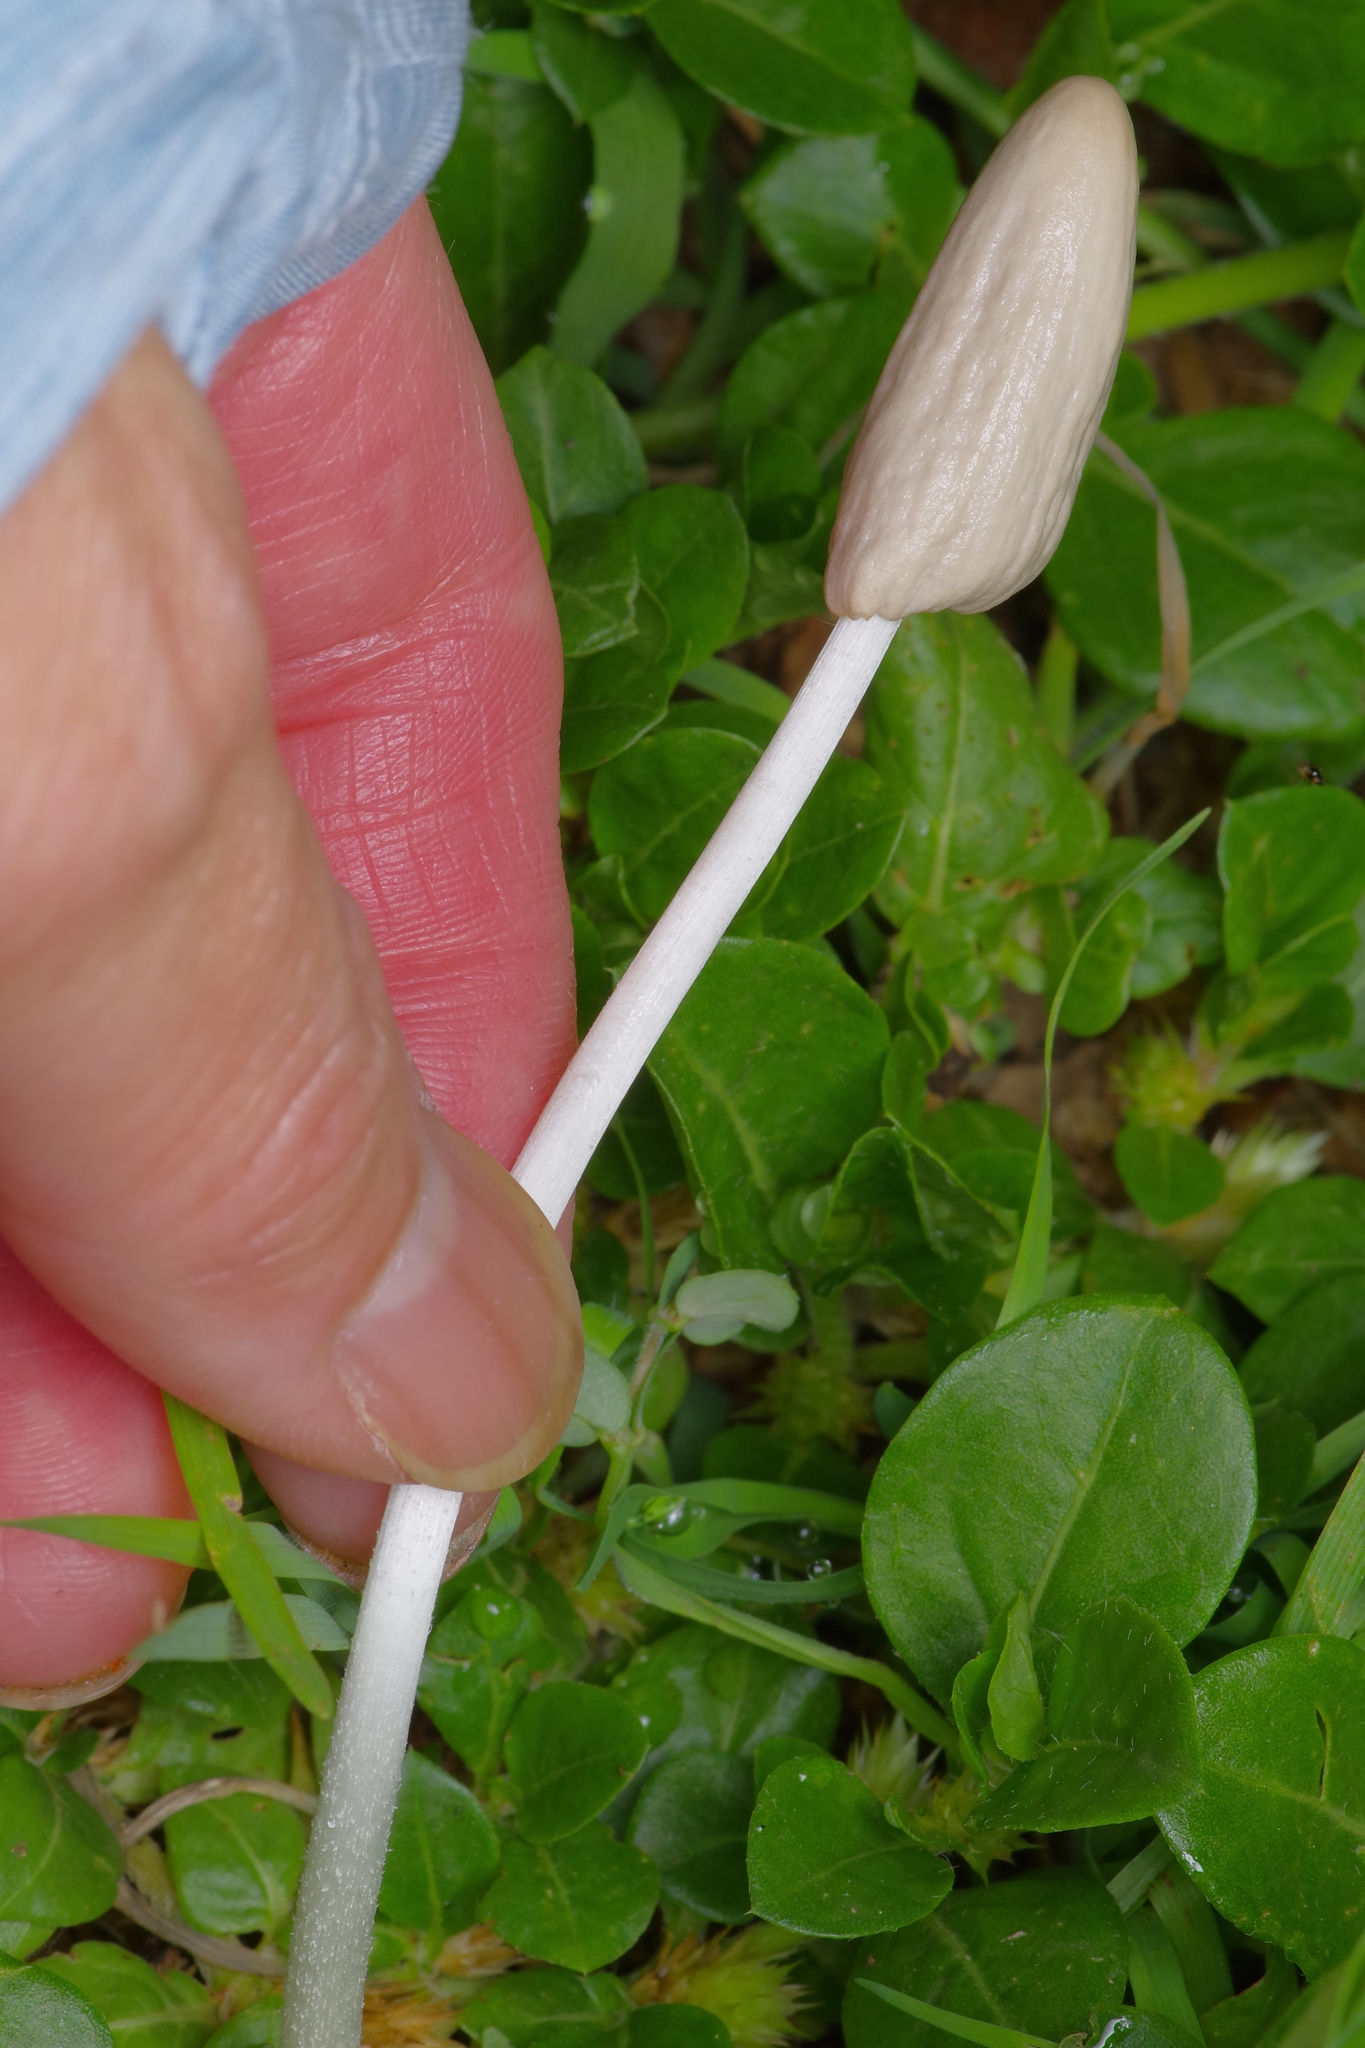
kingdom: Fungi
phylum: Basidiomycota
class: Agaricomycetes
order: Agaricales
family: Bolbitiaceae
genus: Conocybe
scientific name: Conocybe deliquescens
